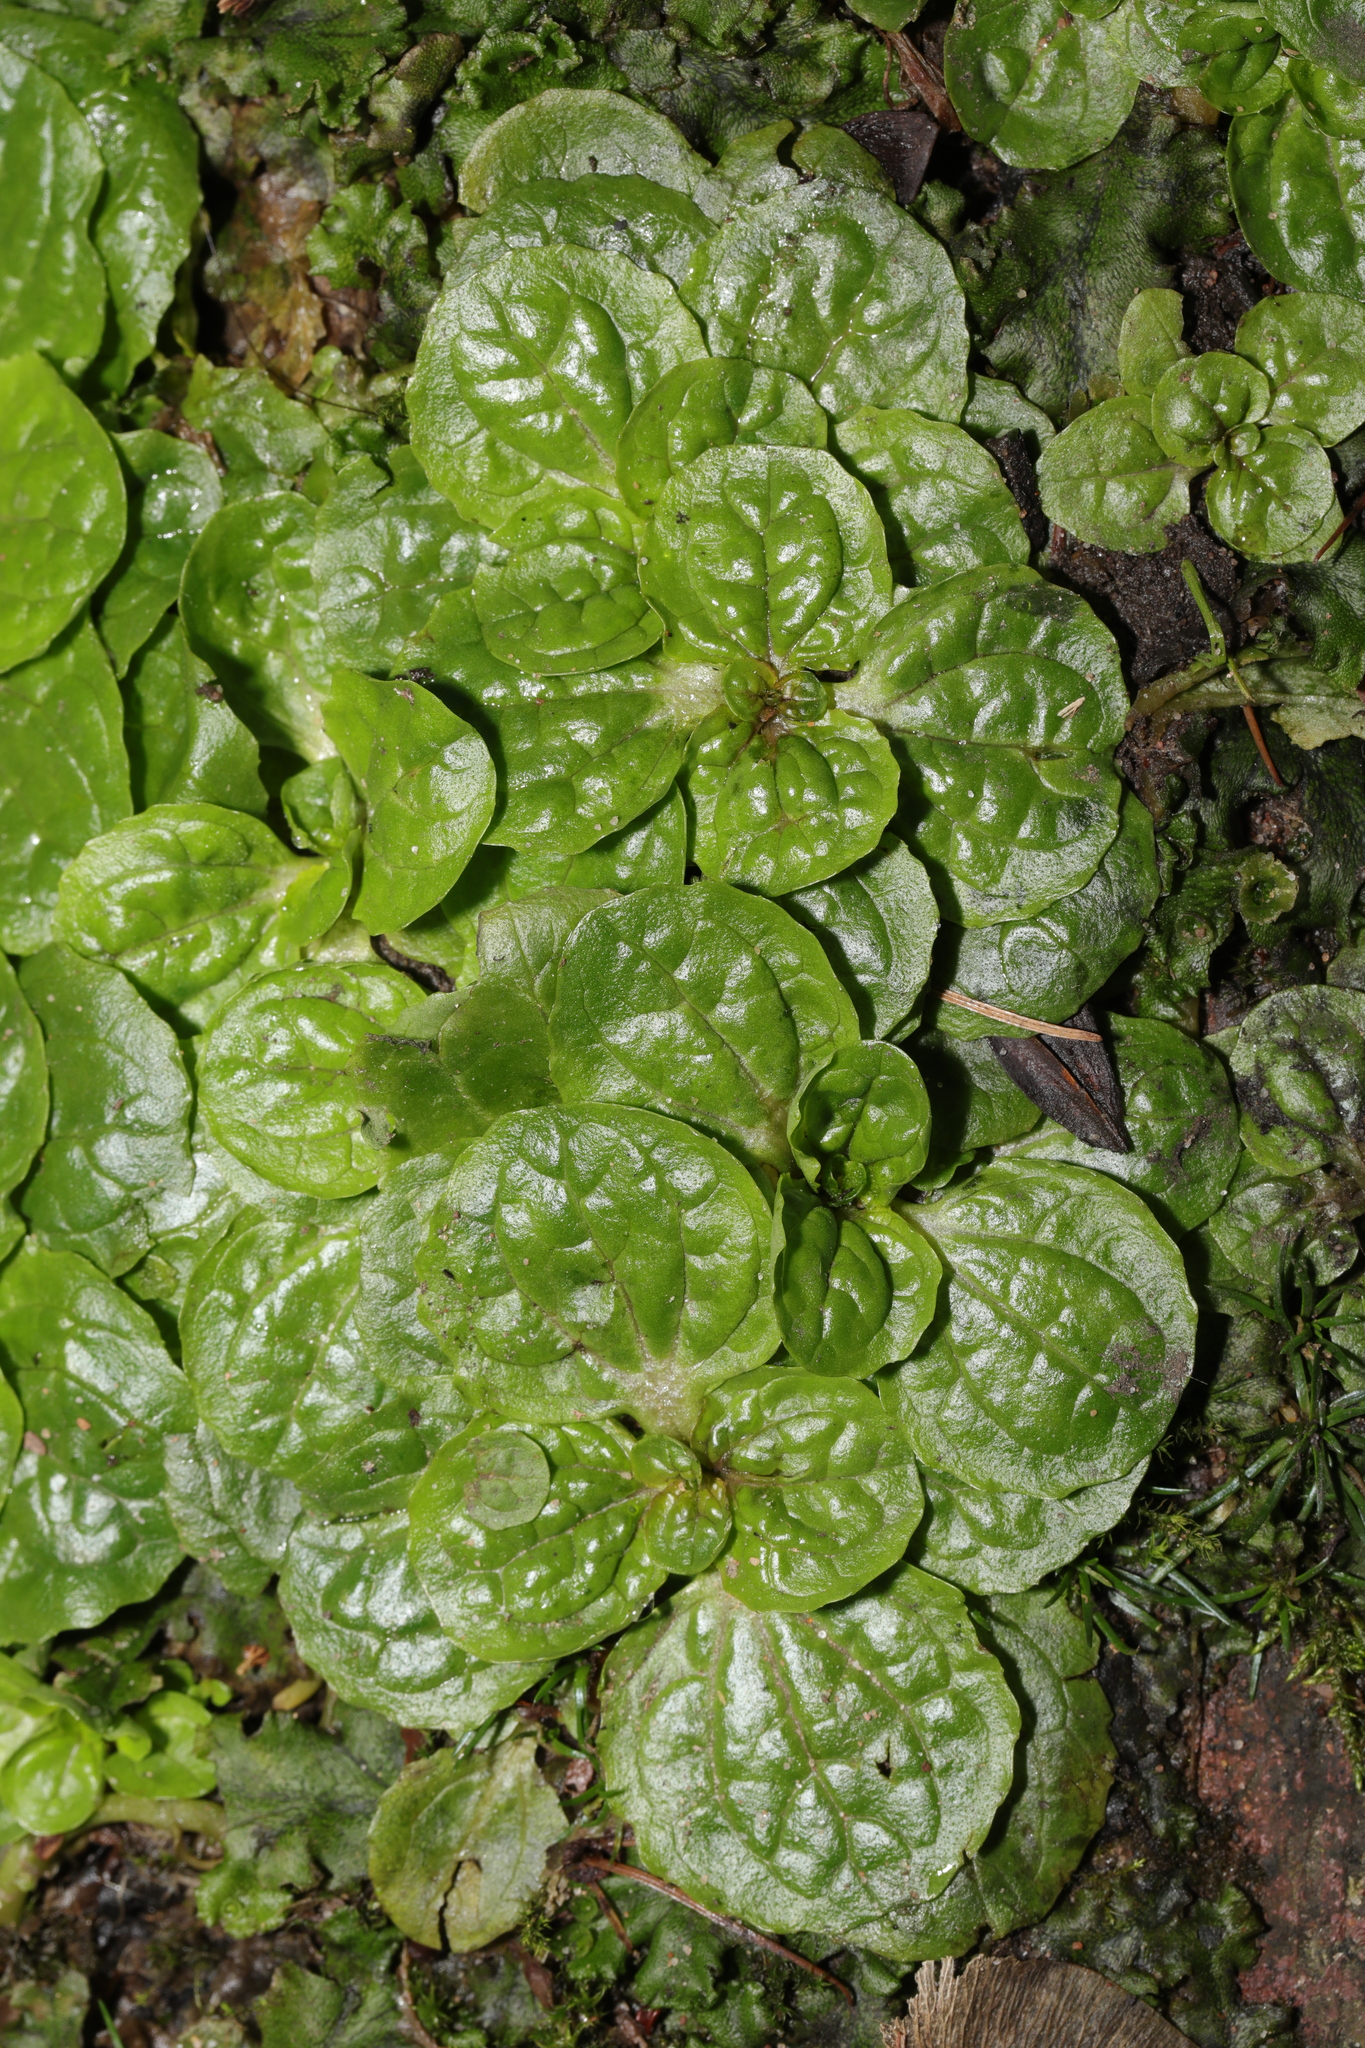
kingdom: Plantae
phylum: Tracheophyta
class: Magnoliopsida
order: Lamiales
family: Plantaginaceae
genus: Veronica
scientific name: Veronica beccabunga
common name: Brooklime
